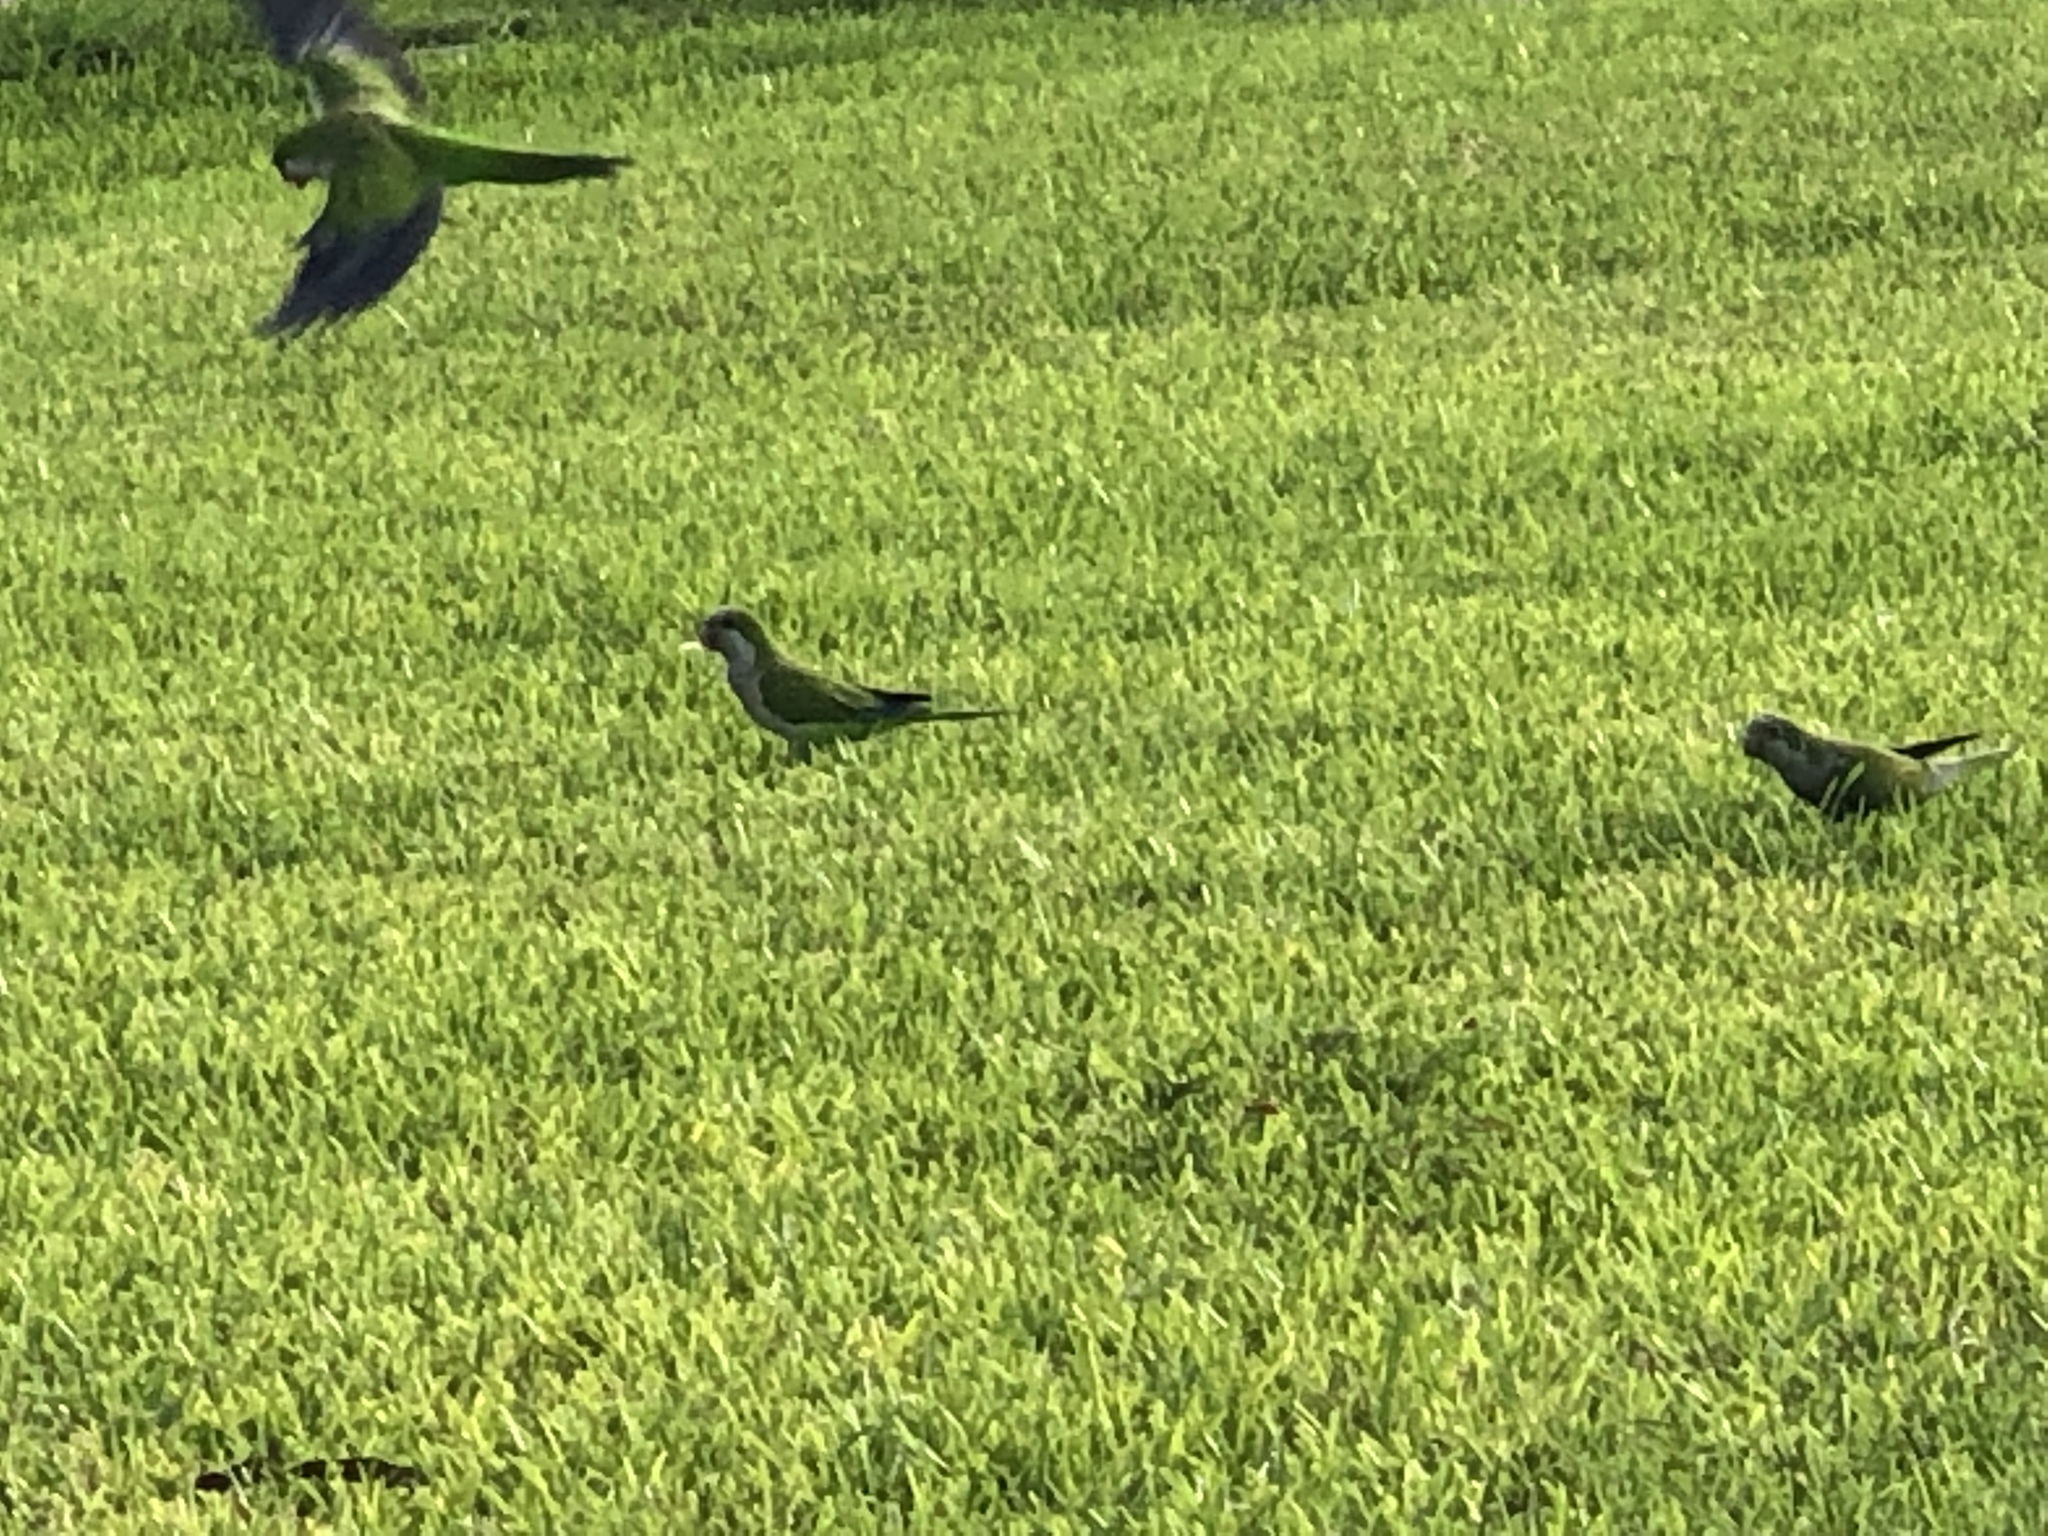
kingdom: Animalia
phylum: Chordata
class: Aves
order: Psittaciformes
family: Psittacidae
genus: Myiopsitta
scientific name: Myiopsitta monachus
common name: Monk parakeet
